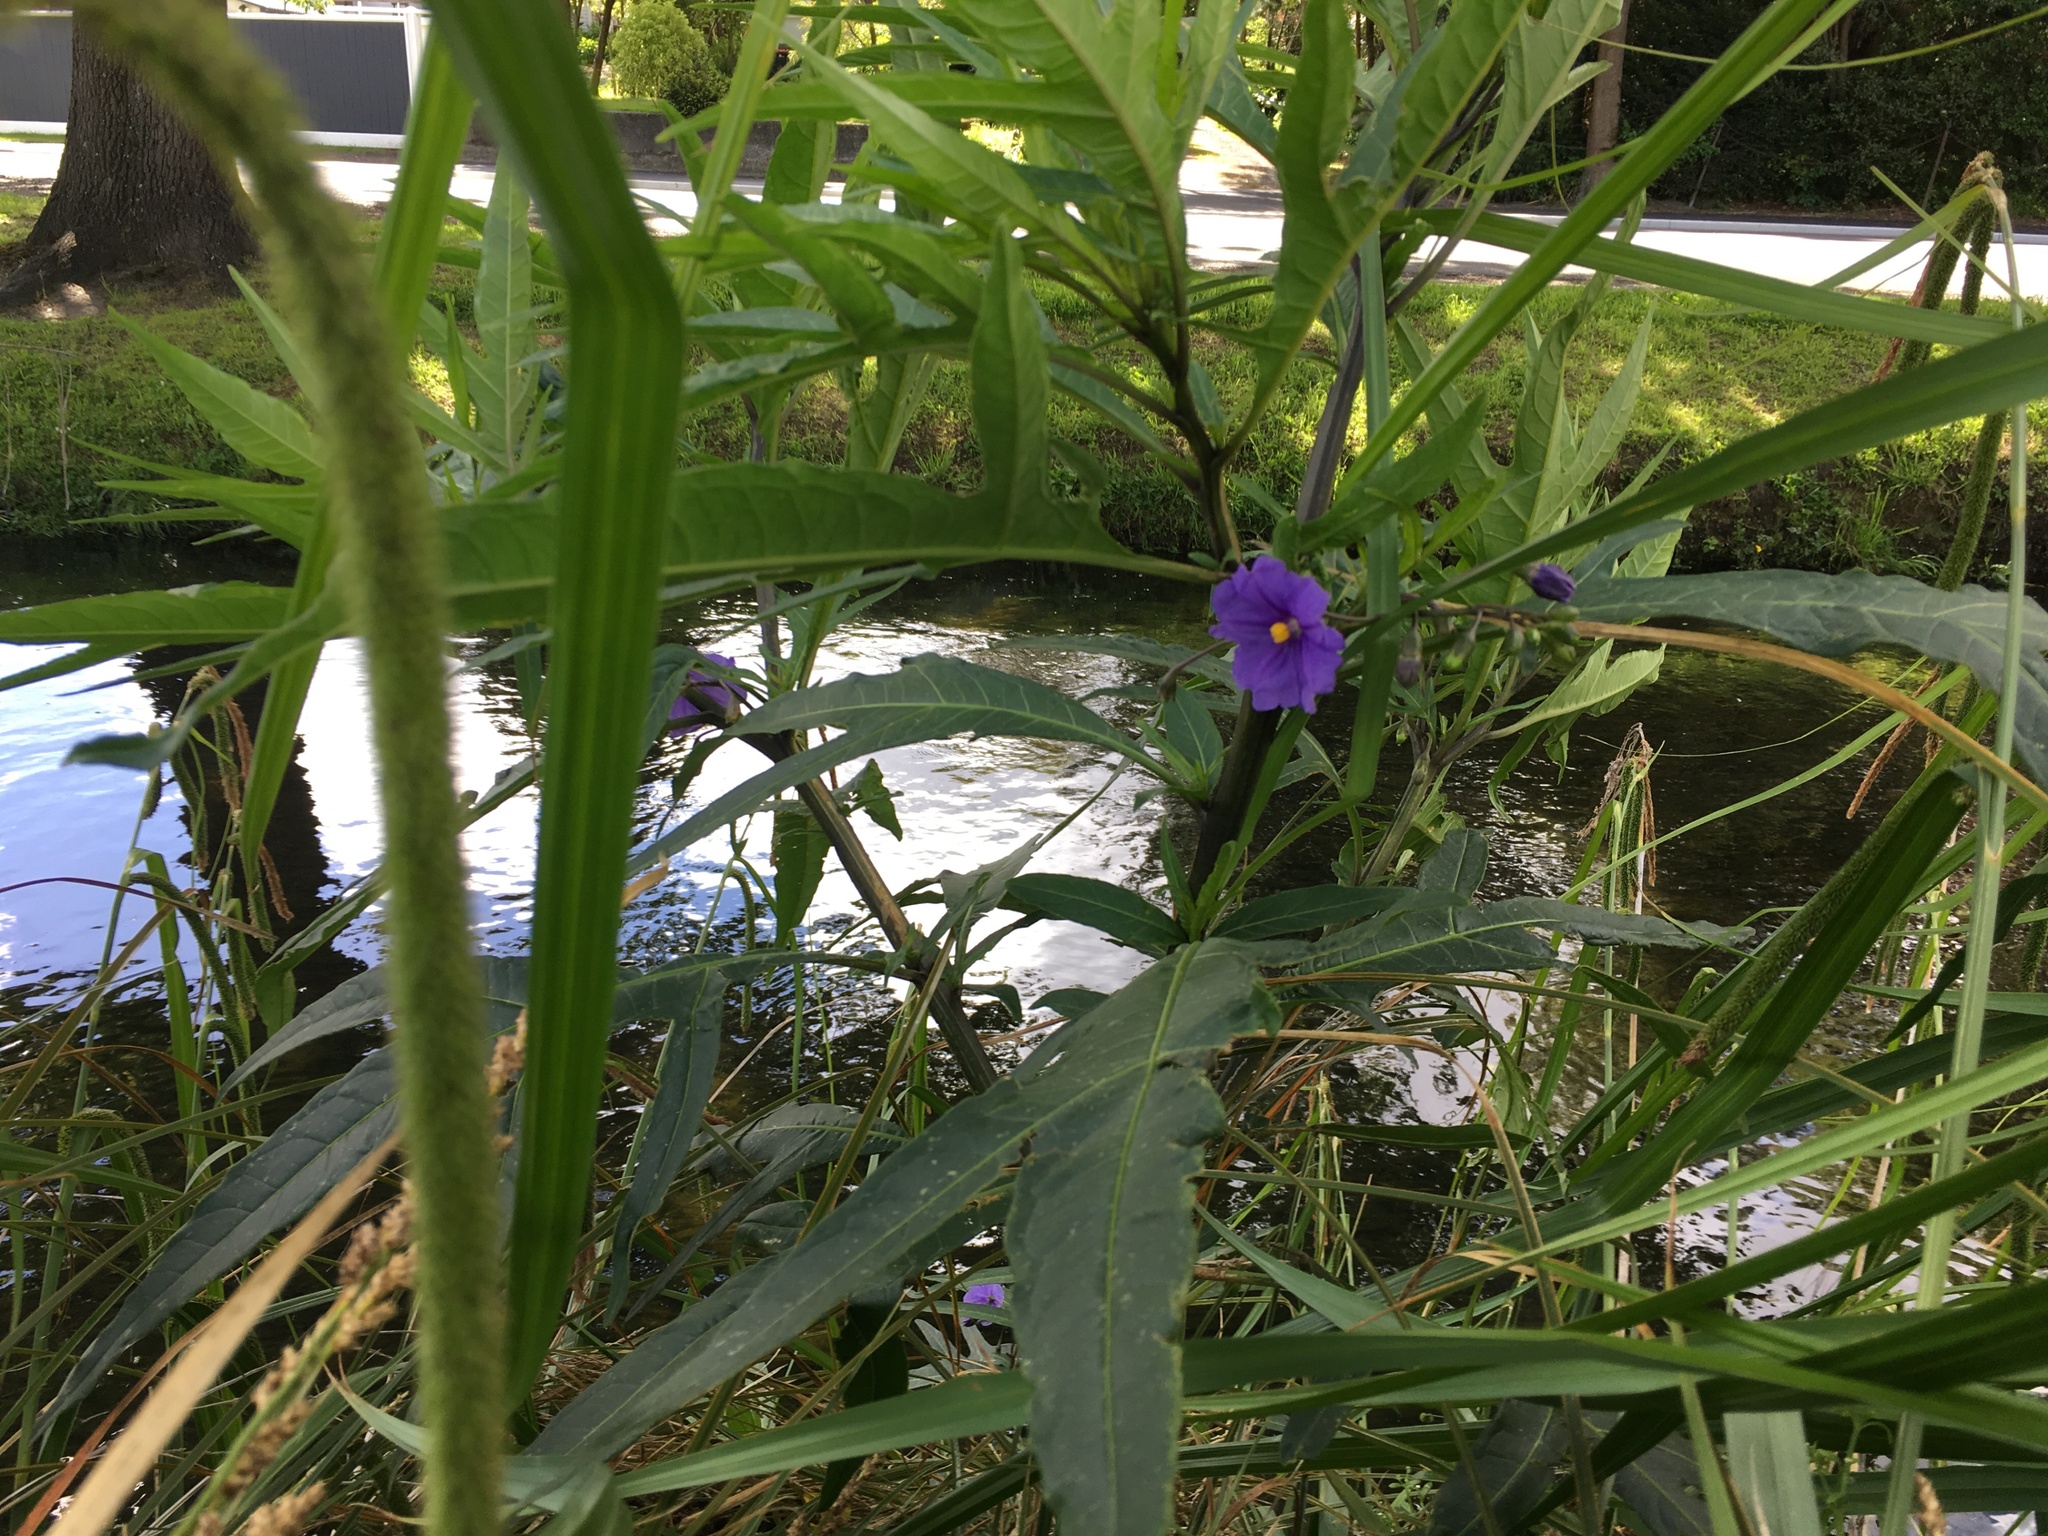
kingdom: Plantae
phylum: Tracheophyta
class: Magnoliopsida
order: Solanales
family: Solanaceae
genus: Solanum
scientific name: Solanum laciniatum
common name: Kangaroo-apple
